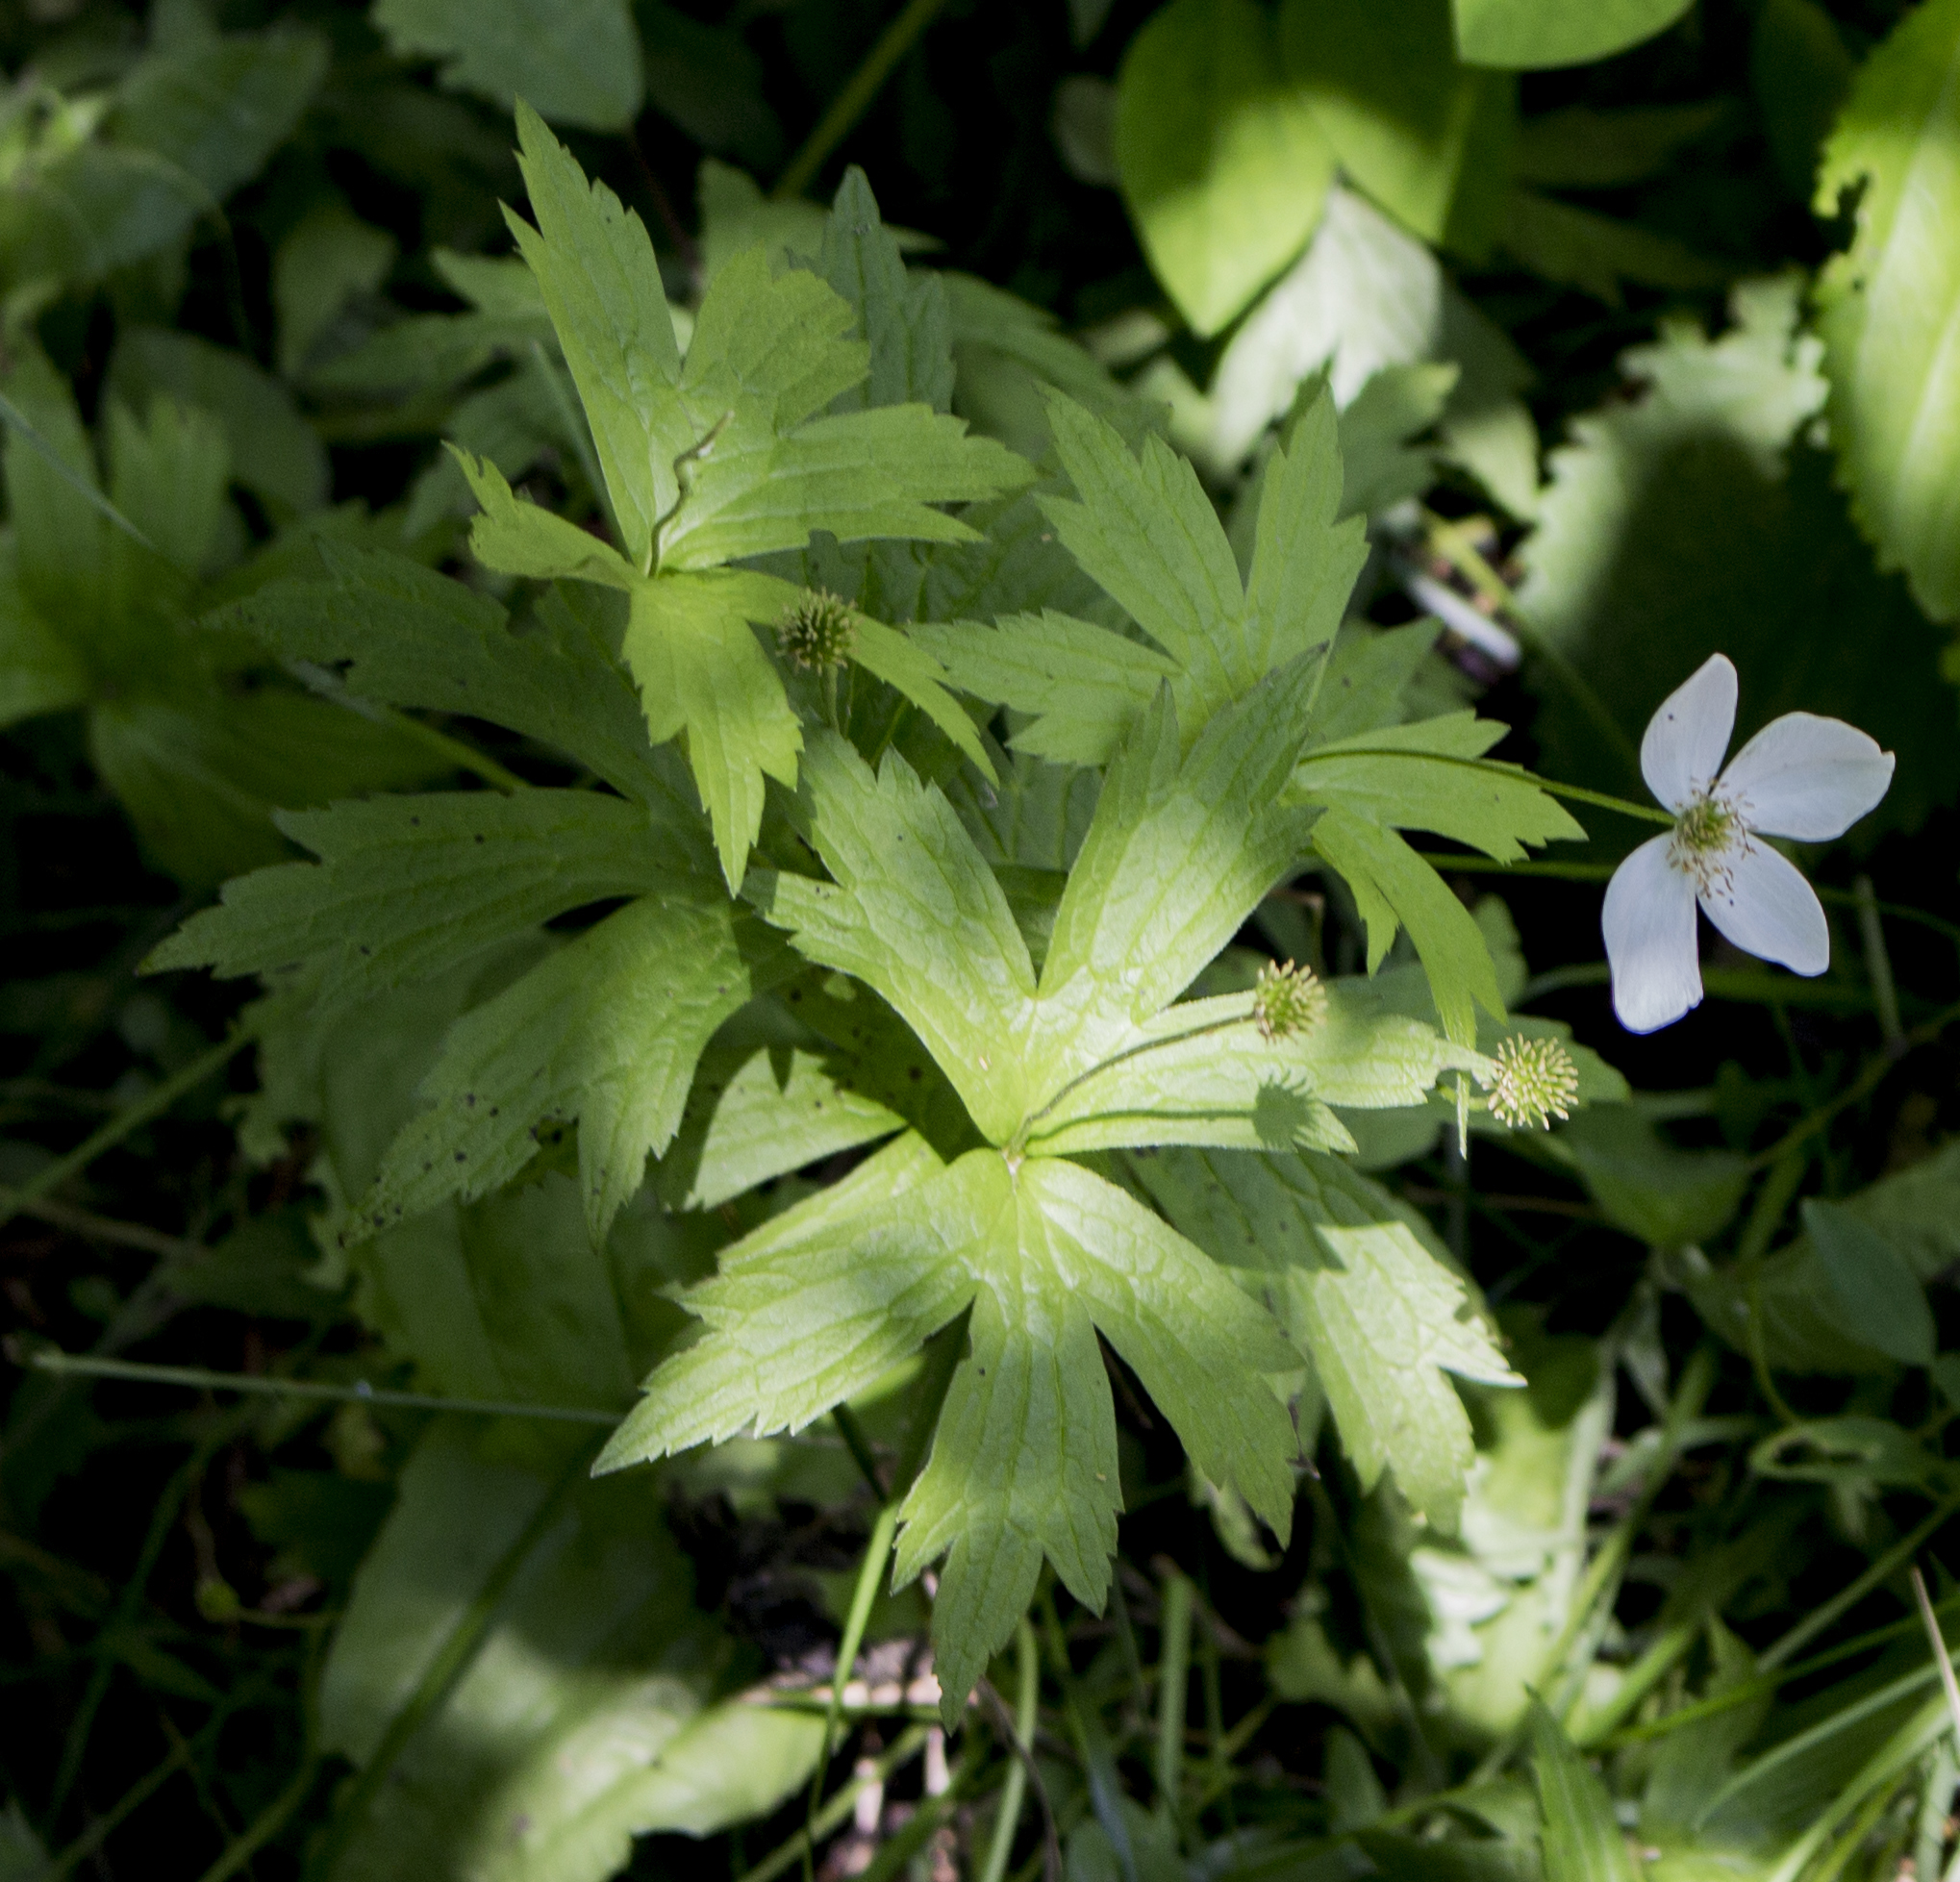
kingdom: Plantae
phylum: Tracheophyta
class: Magnoliopsida
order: Ranunculales
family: Ranunculaceae
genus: Anemonastrum
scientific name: Anemonastrum canadense
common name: Canada anemone
